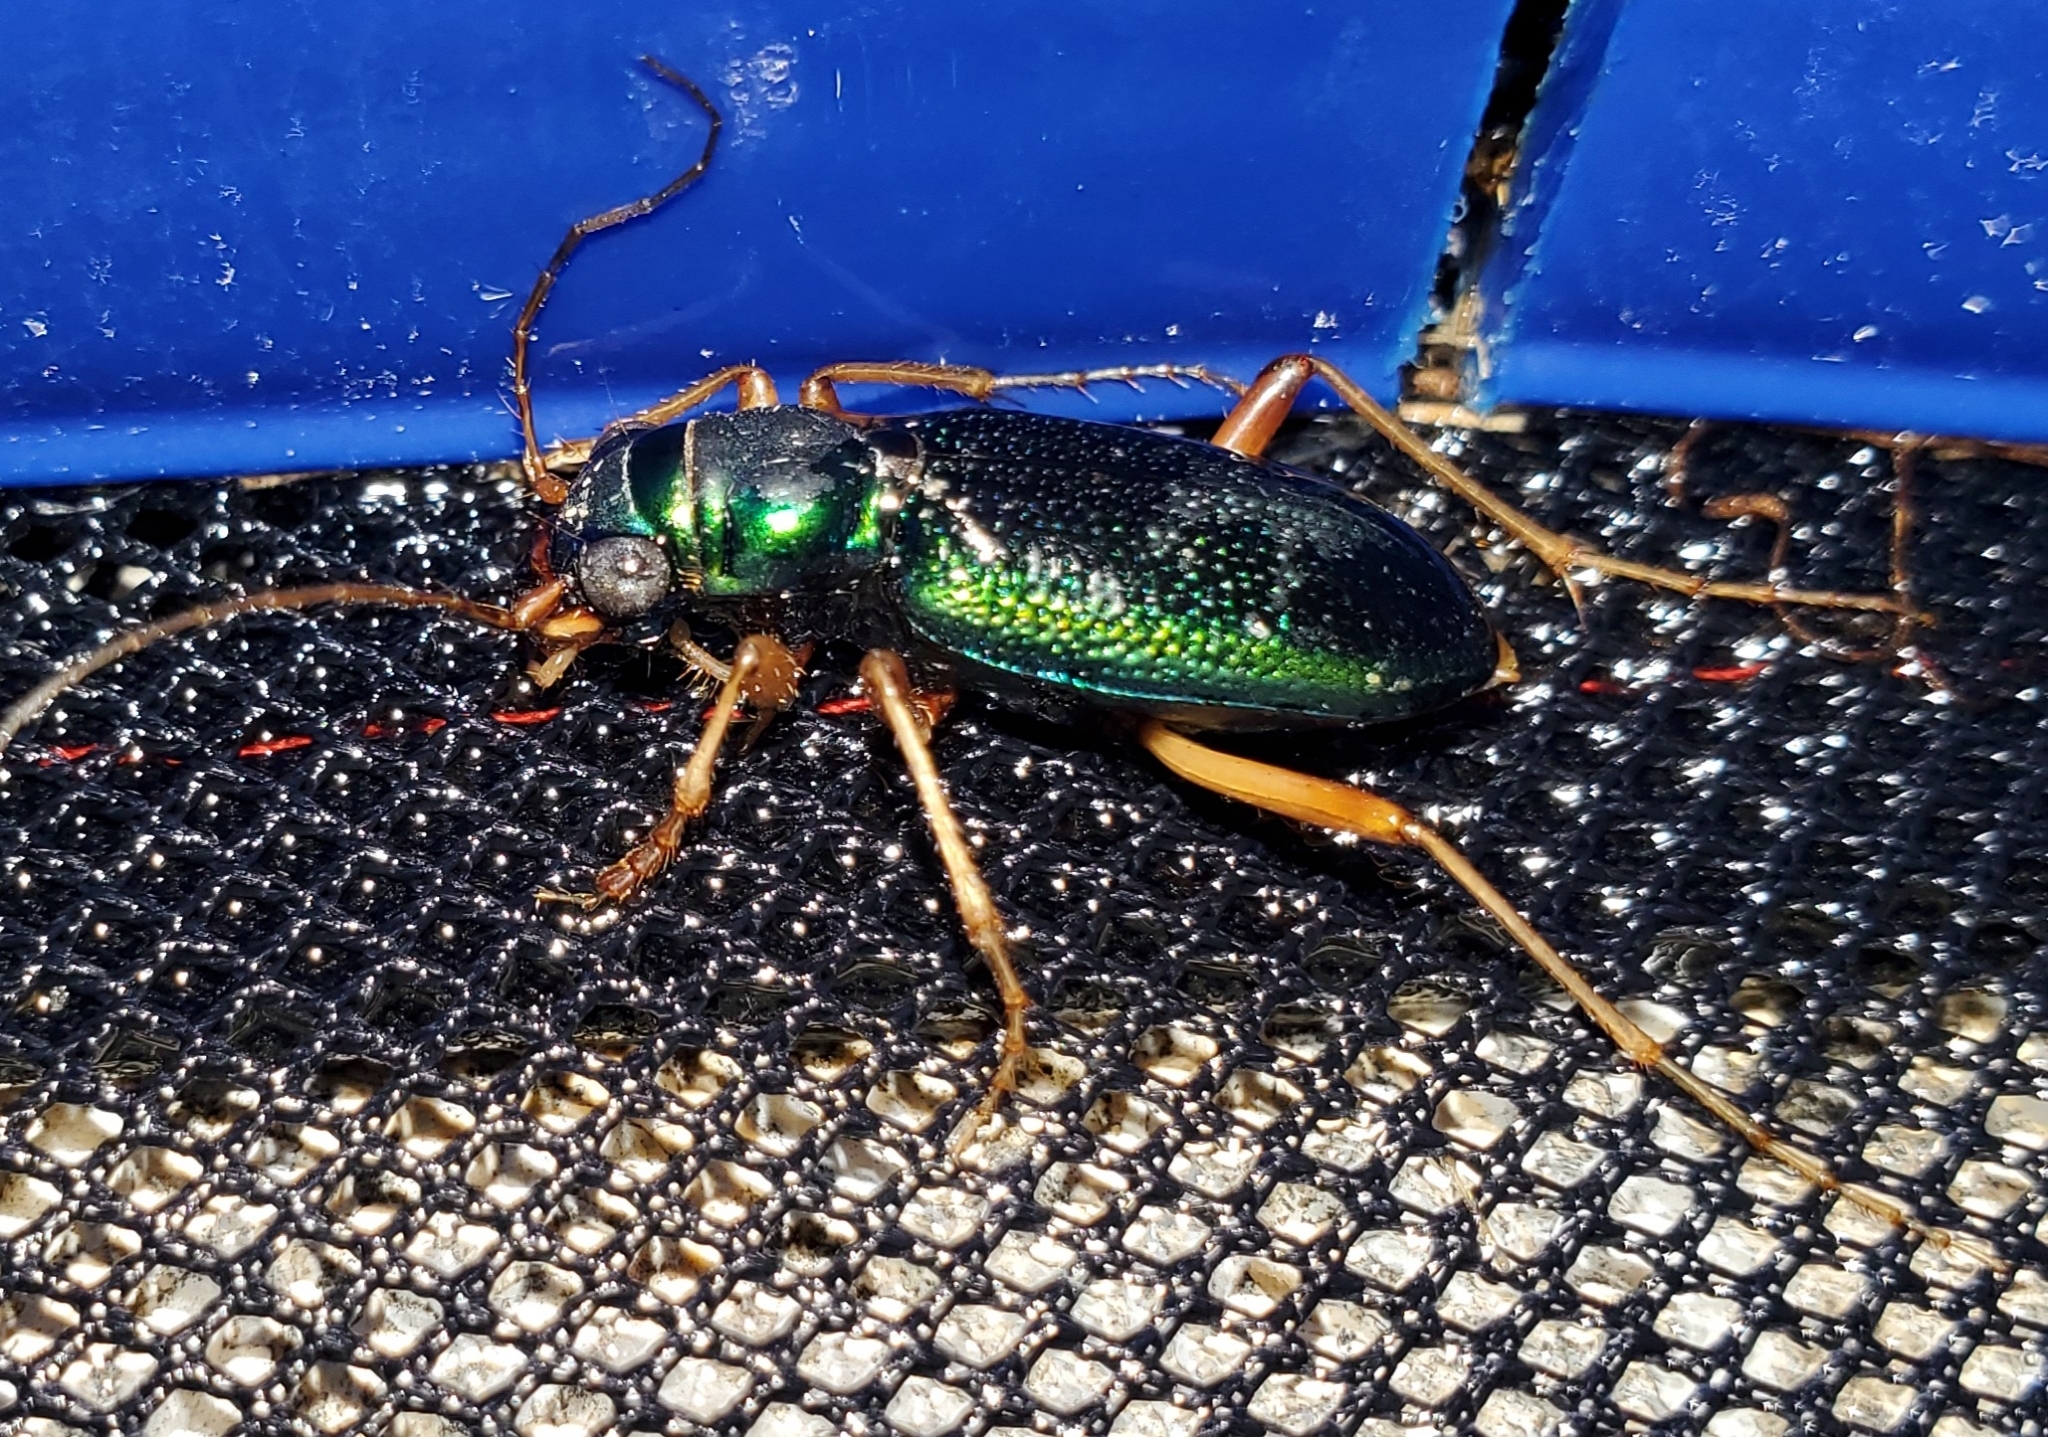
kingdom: Animalia
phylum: Arthropoda
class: Insecta
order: Coleoptera
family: Carabidae
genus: Tetracha
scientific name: Tetracha virginica
